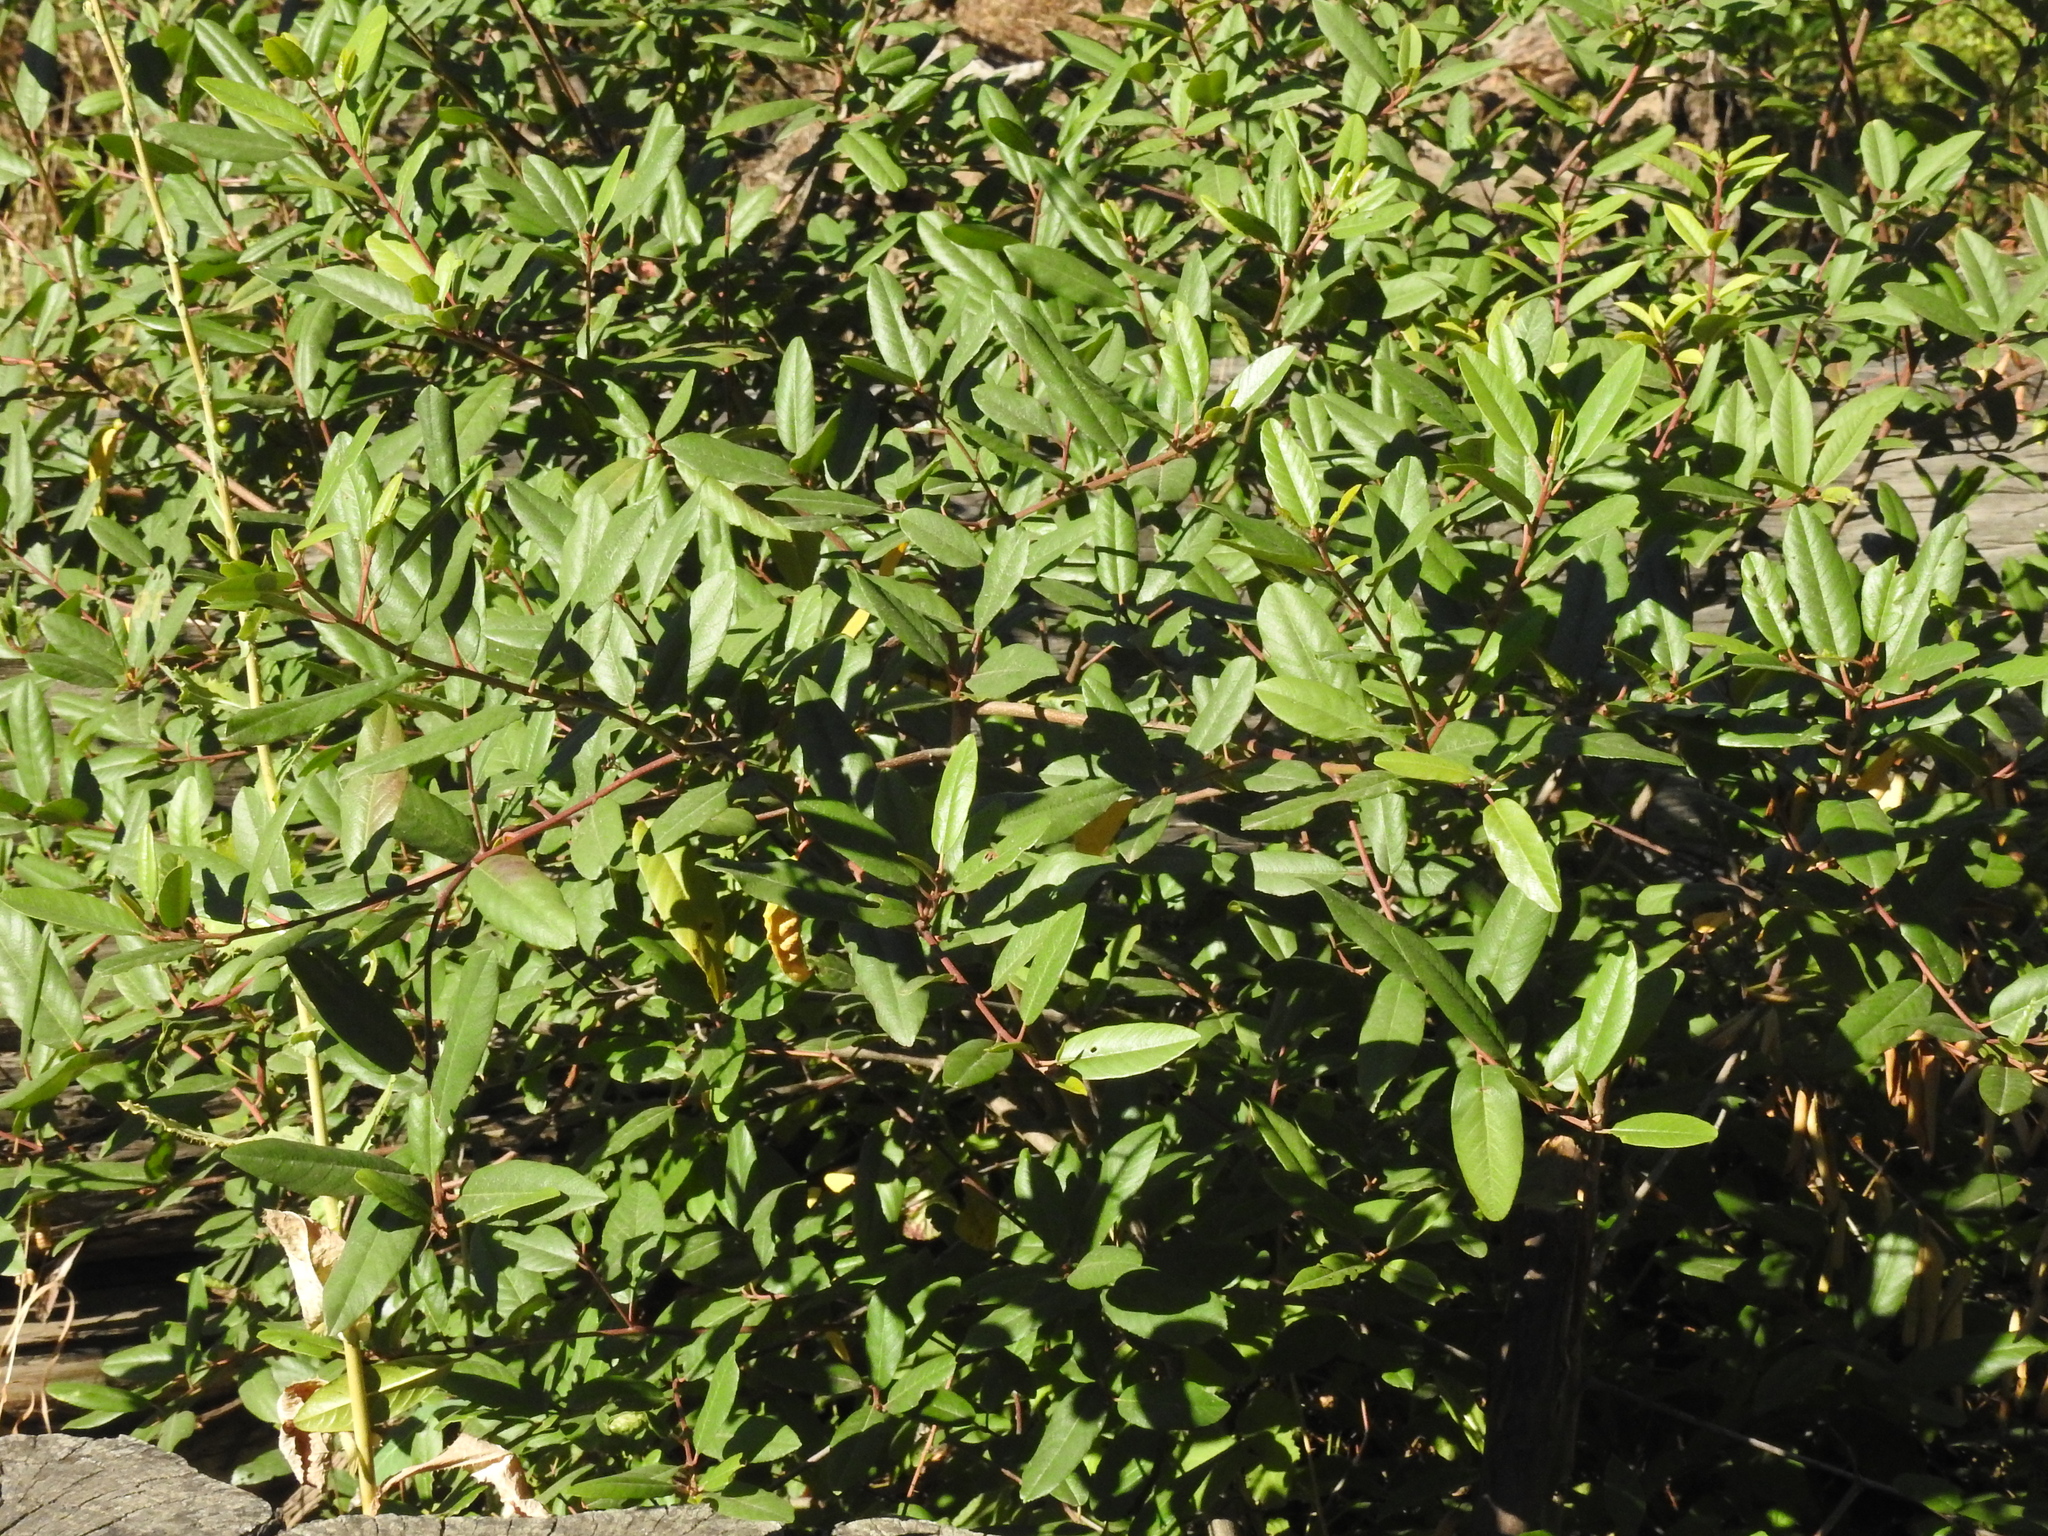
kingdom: Plantae
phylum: Tracheophyta
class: Magnoliopsida
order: Rosales
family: Rhamnaceae
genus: Frangula
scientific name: Frangula californica
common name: California buckthorn
